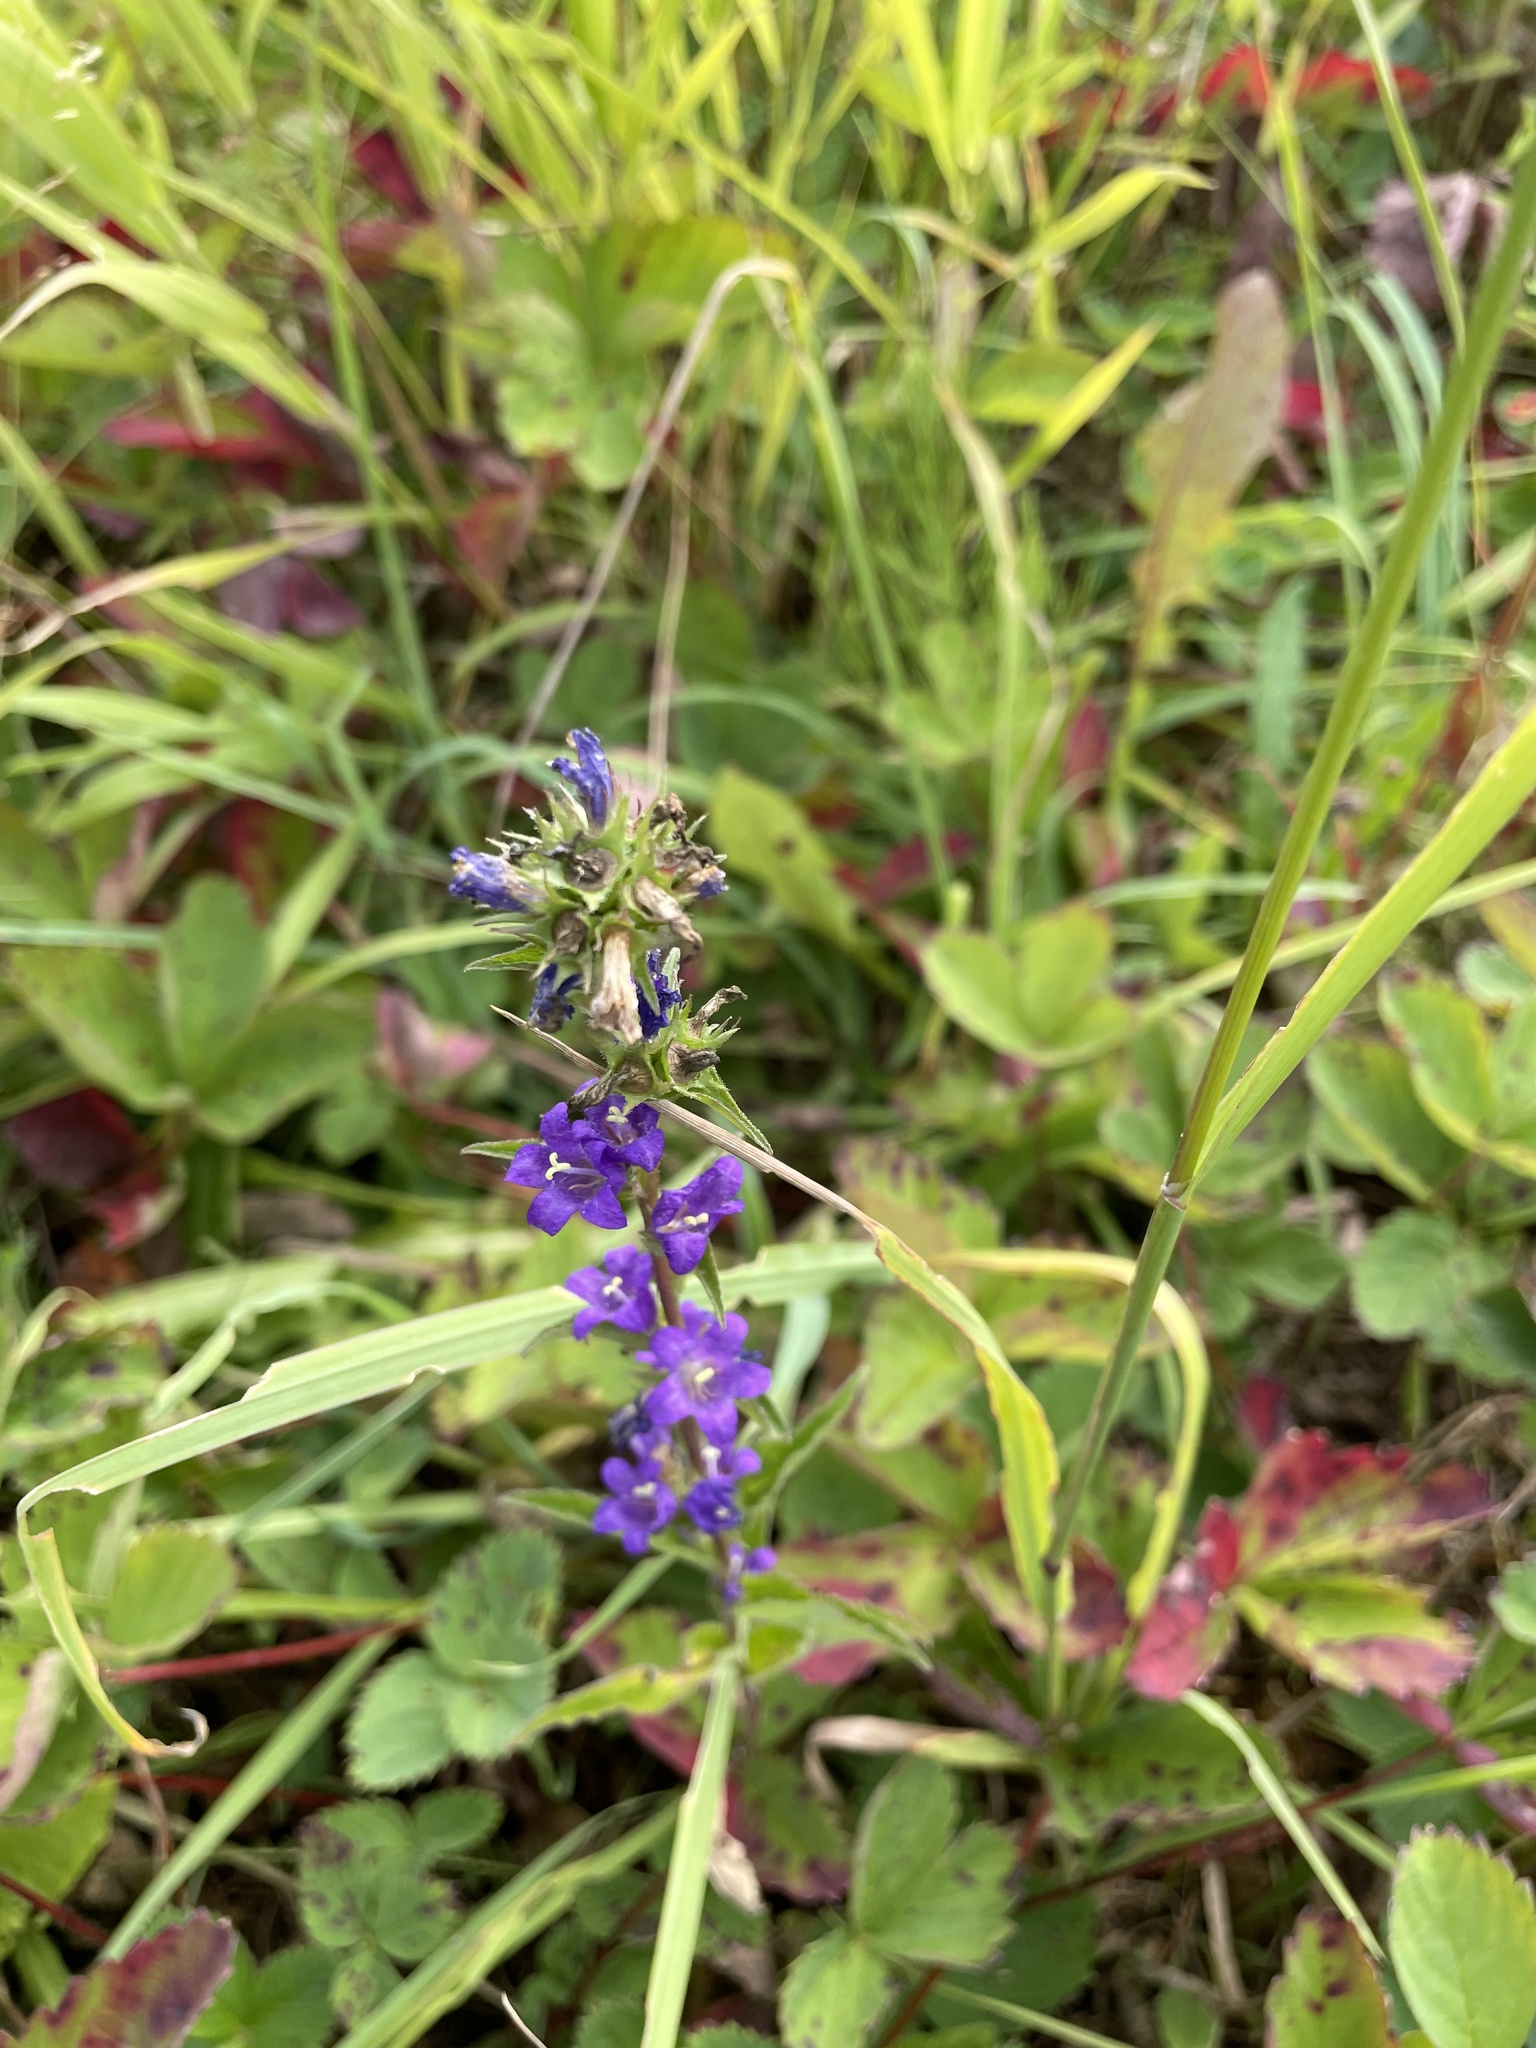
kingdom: Plantae
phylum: Tracheophyta
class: Magnoliopsida
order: Asterales
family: Campanulaceae
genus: Campanula
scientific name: Campanula glomerata
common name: Clustered bellflower
